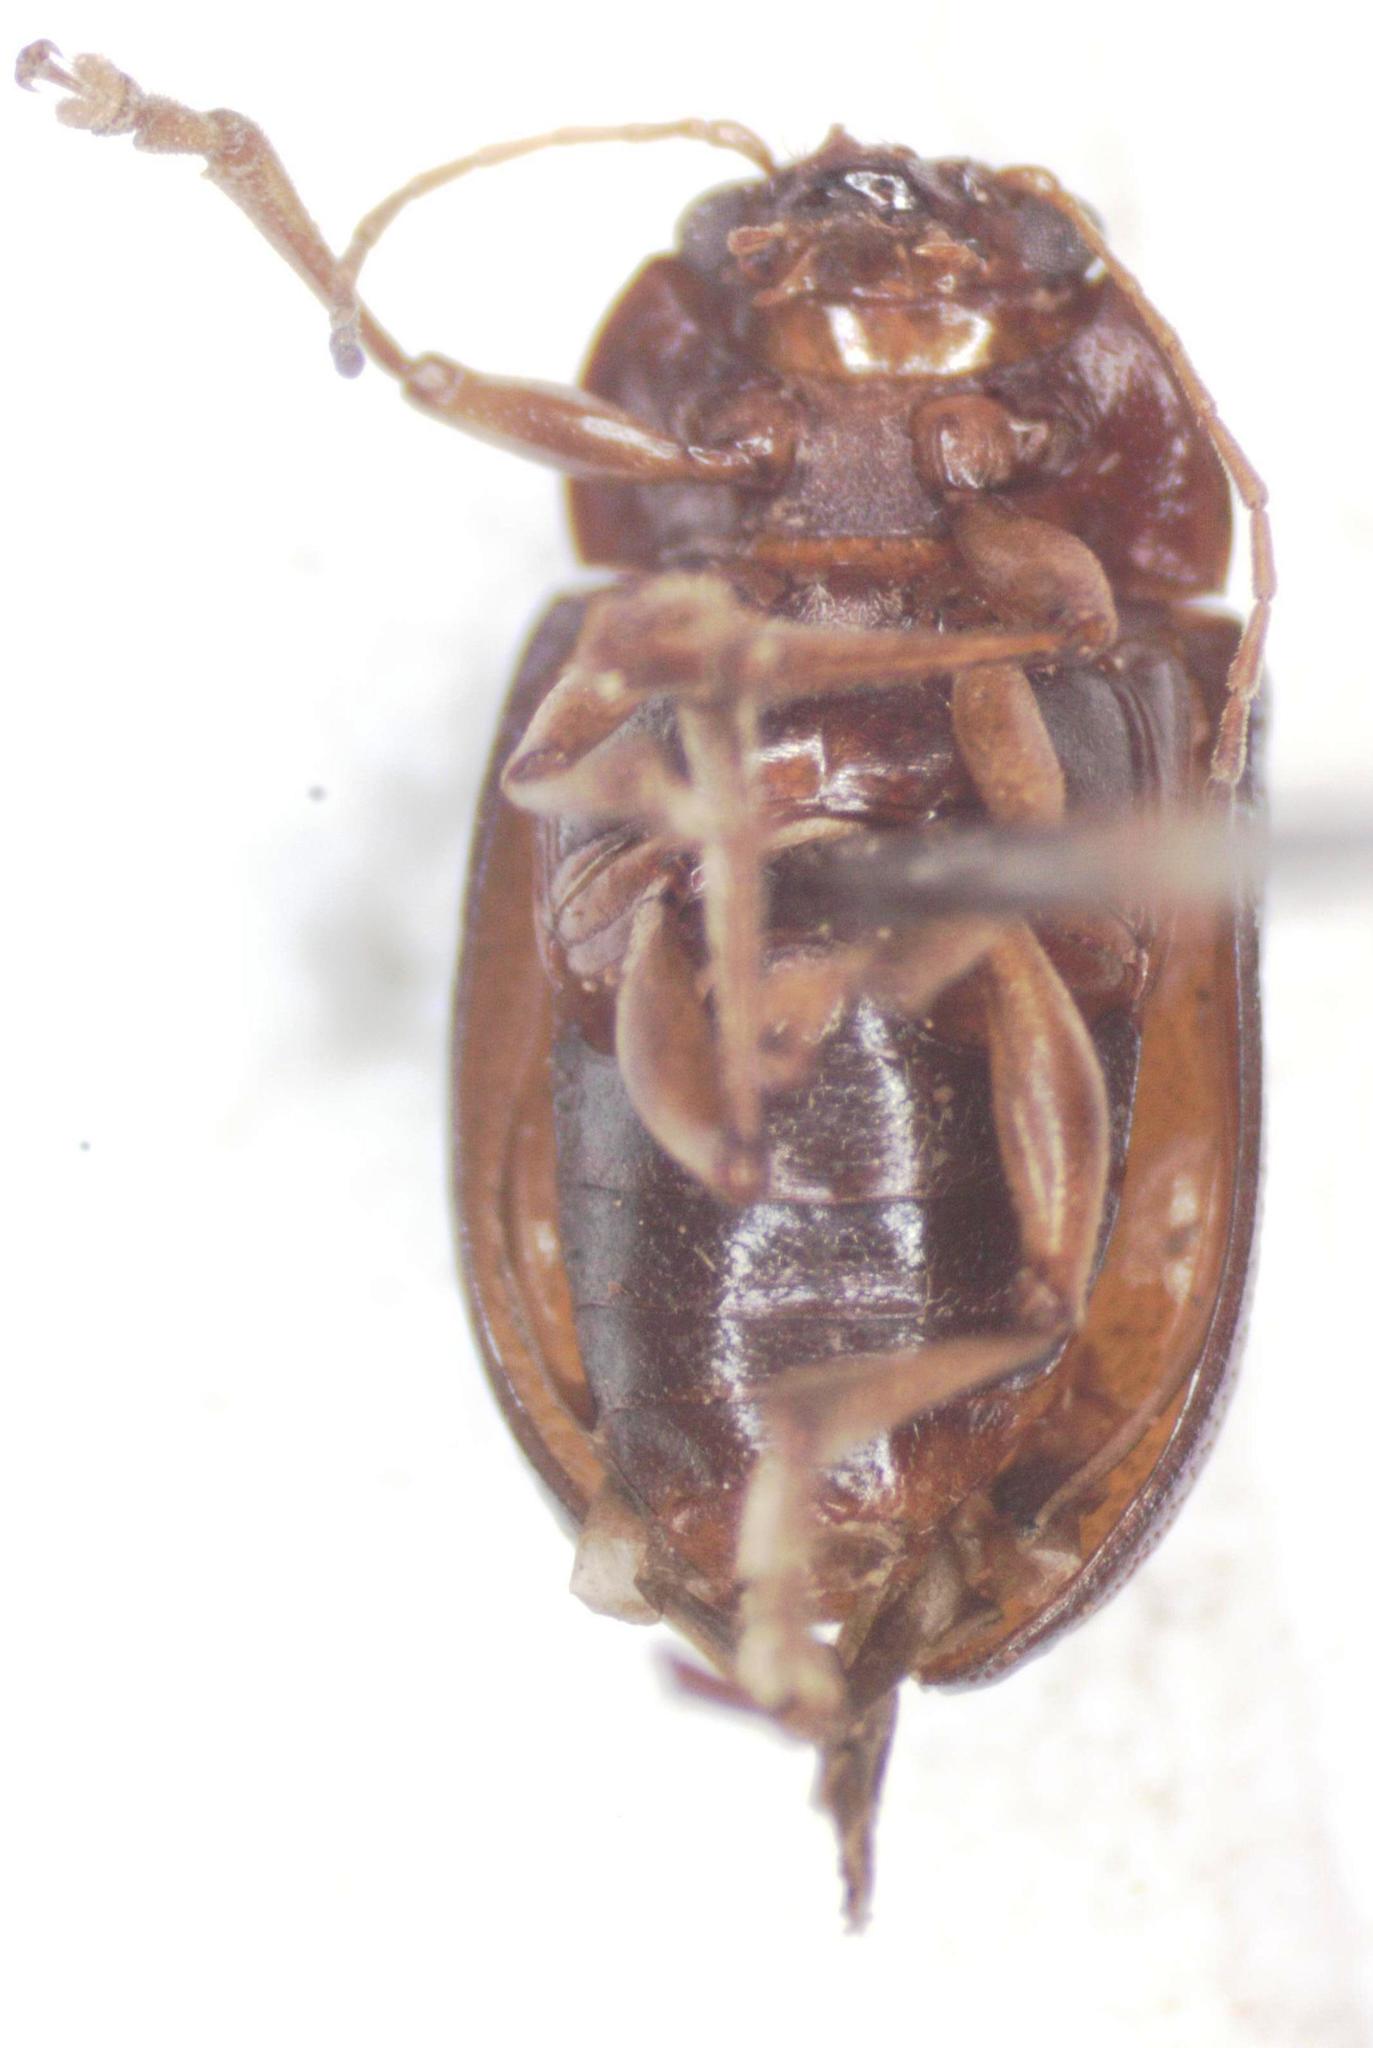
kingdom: Animalia
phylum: Arthropoda
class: Insecta
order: Coleoptera
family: Chrysomelidae
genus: Talurus
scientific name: Talurus
